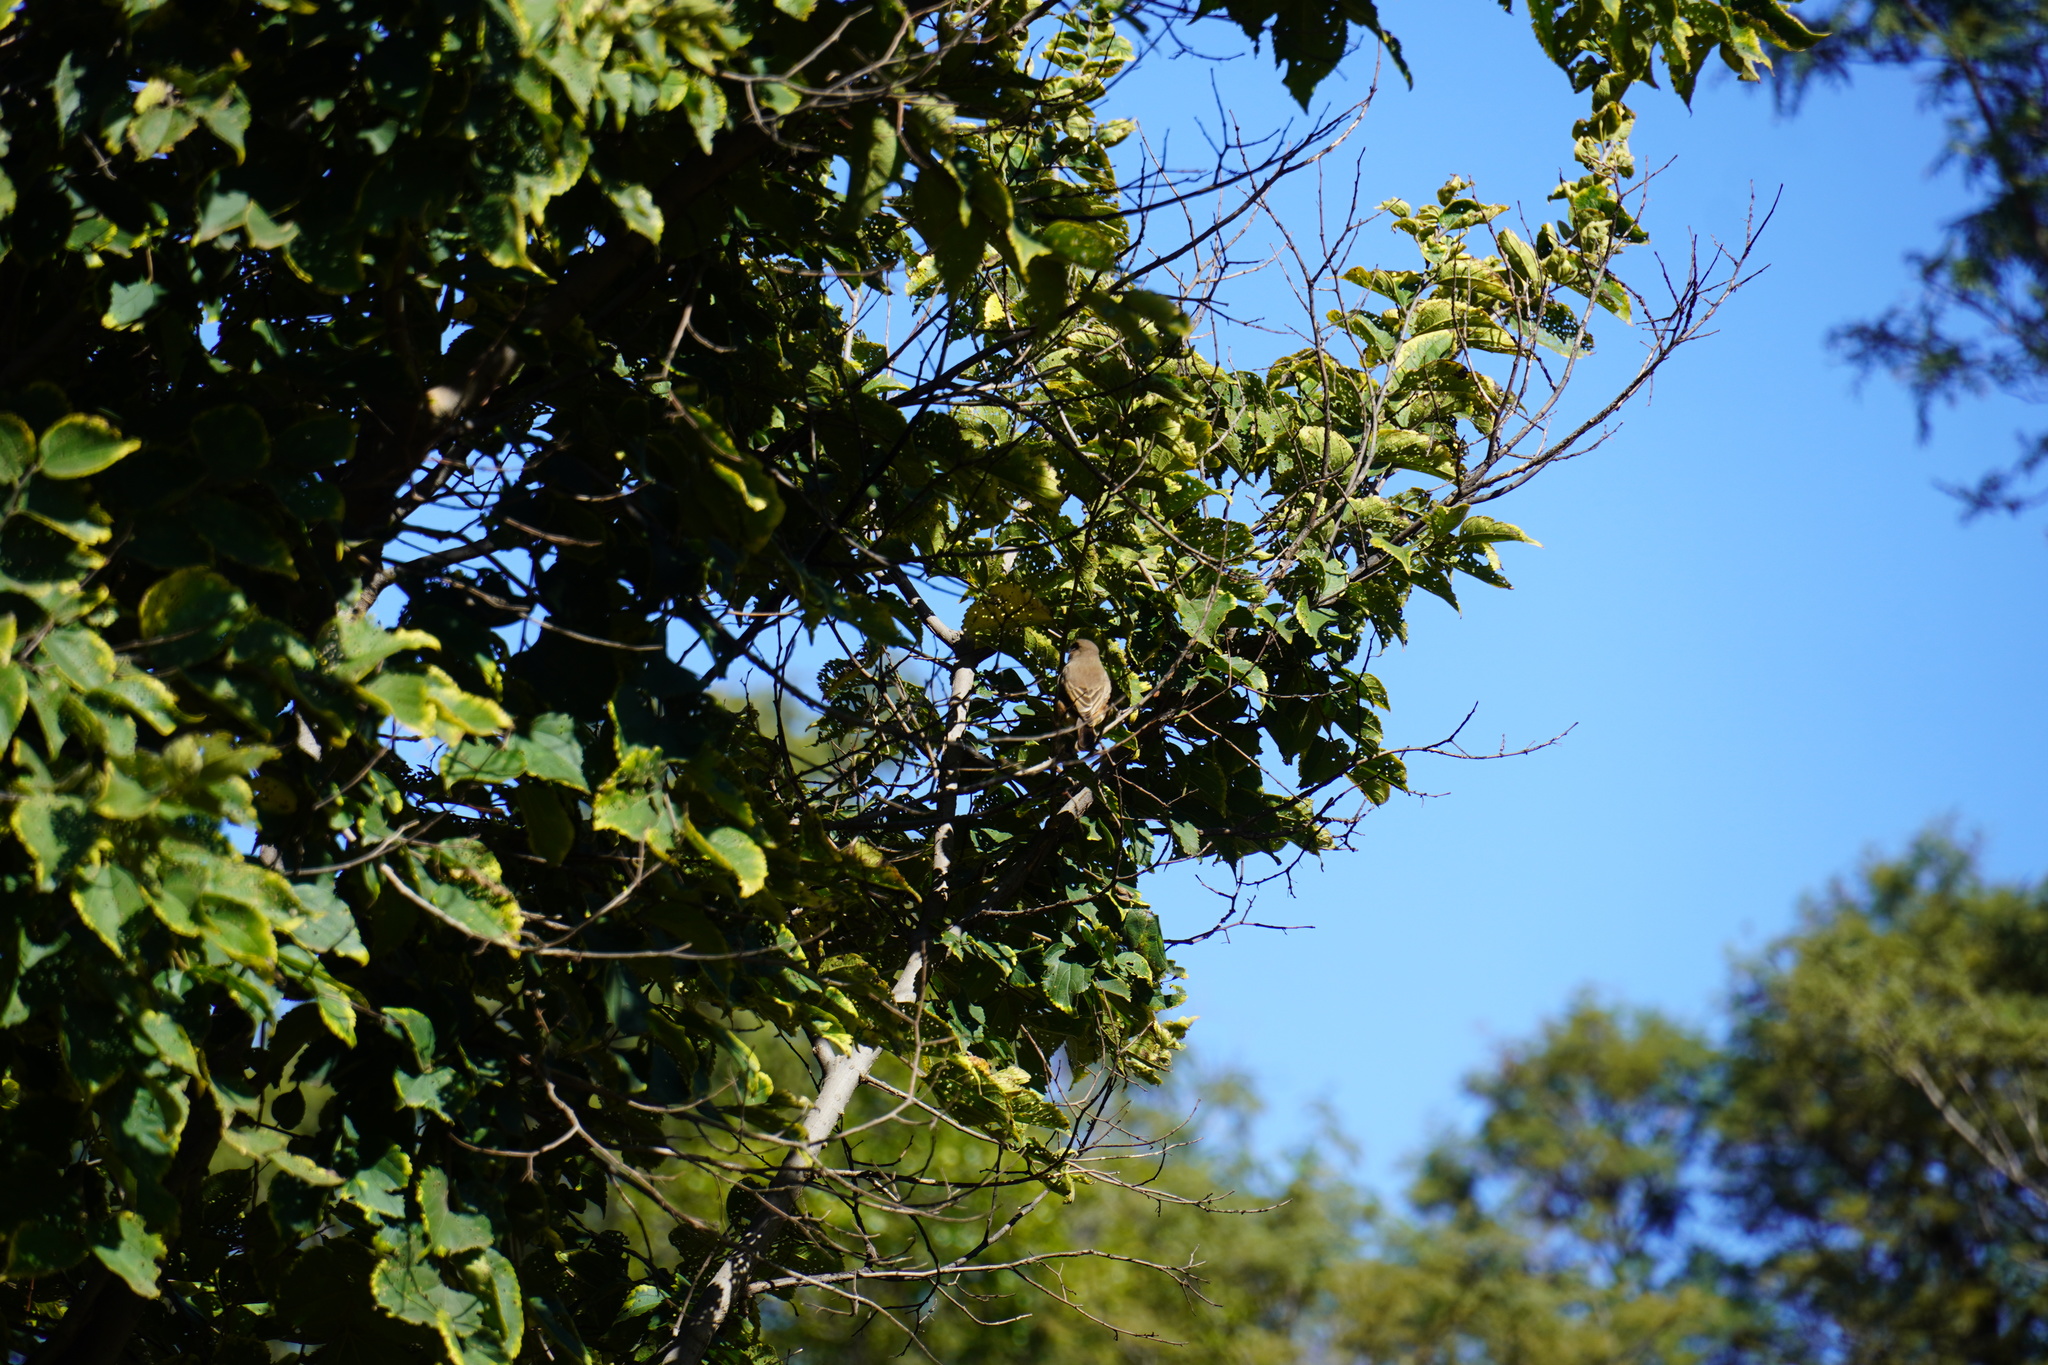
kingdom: Animalia
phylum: Chordata
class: Aves
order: Passeriformes
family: Muscicapidae
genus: Oenanthe
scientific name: Oenanthe familiaris
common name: Familiar chat
